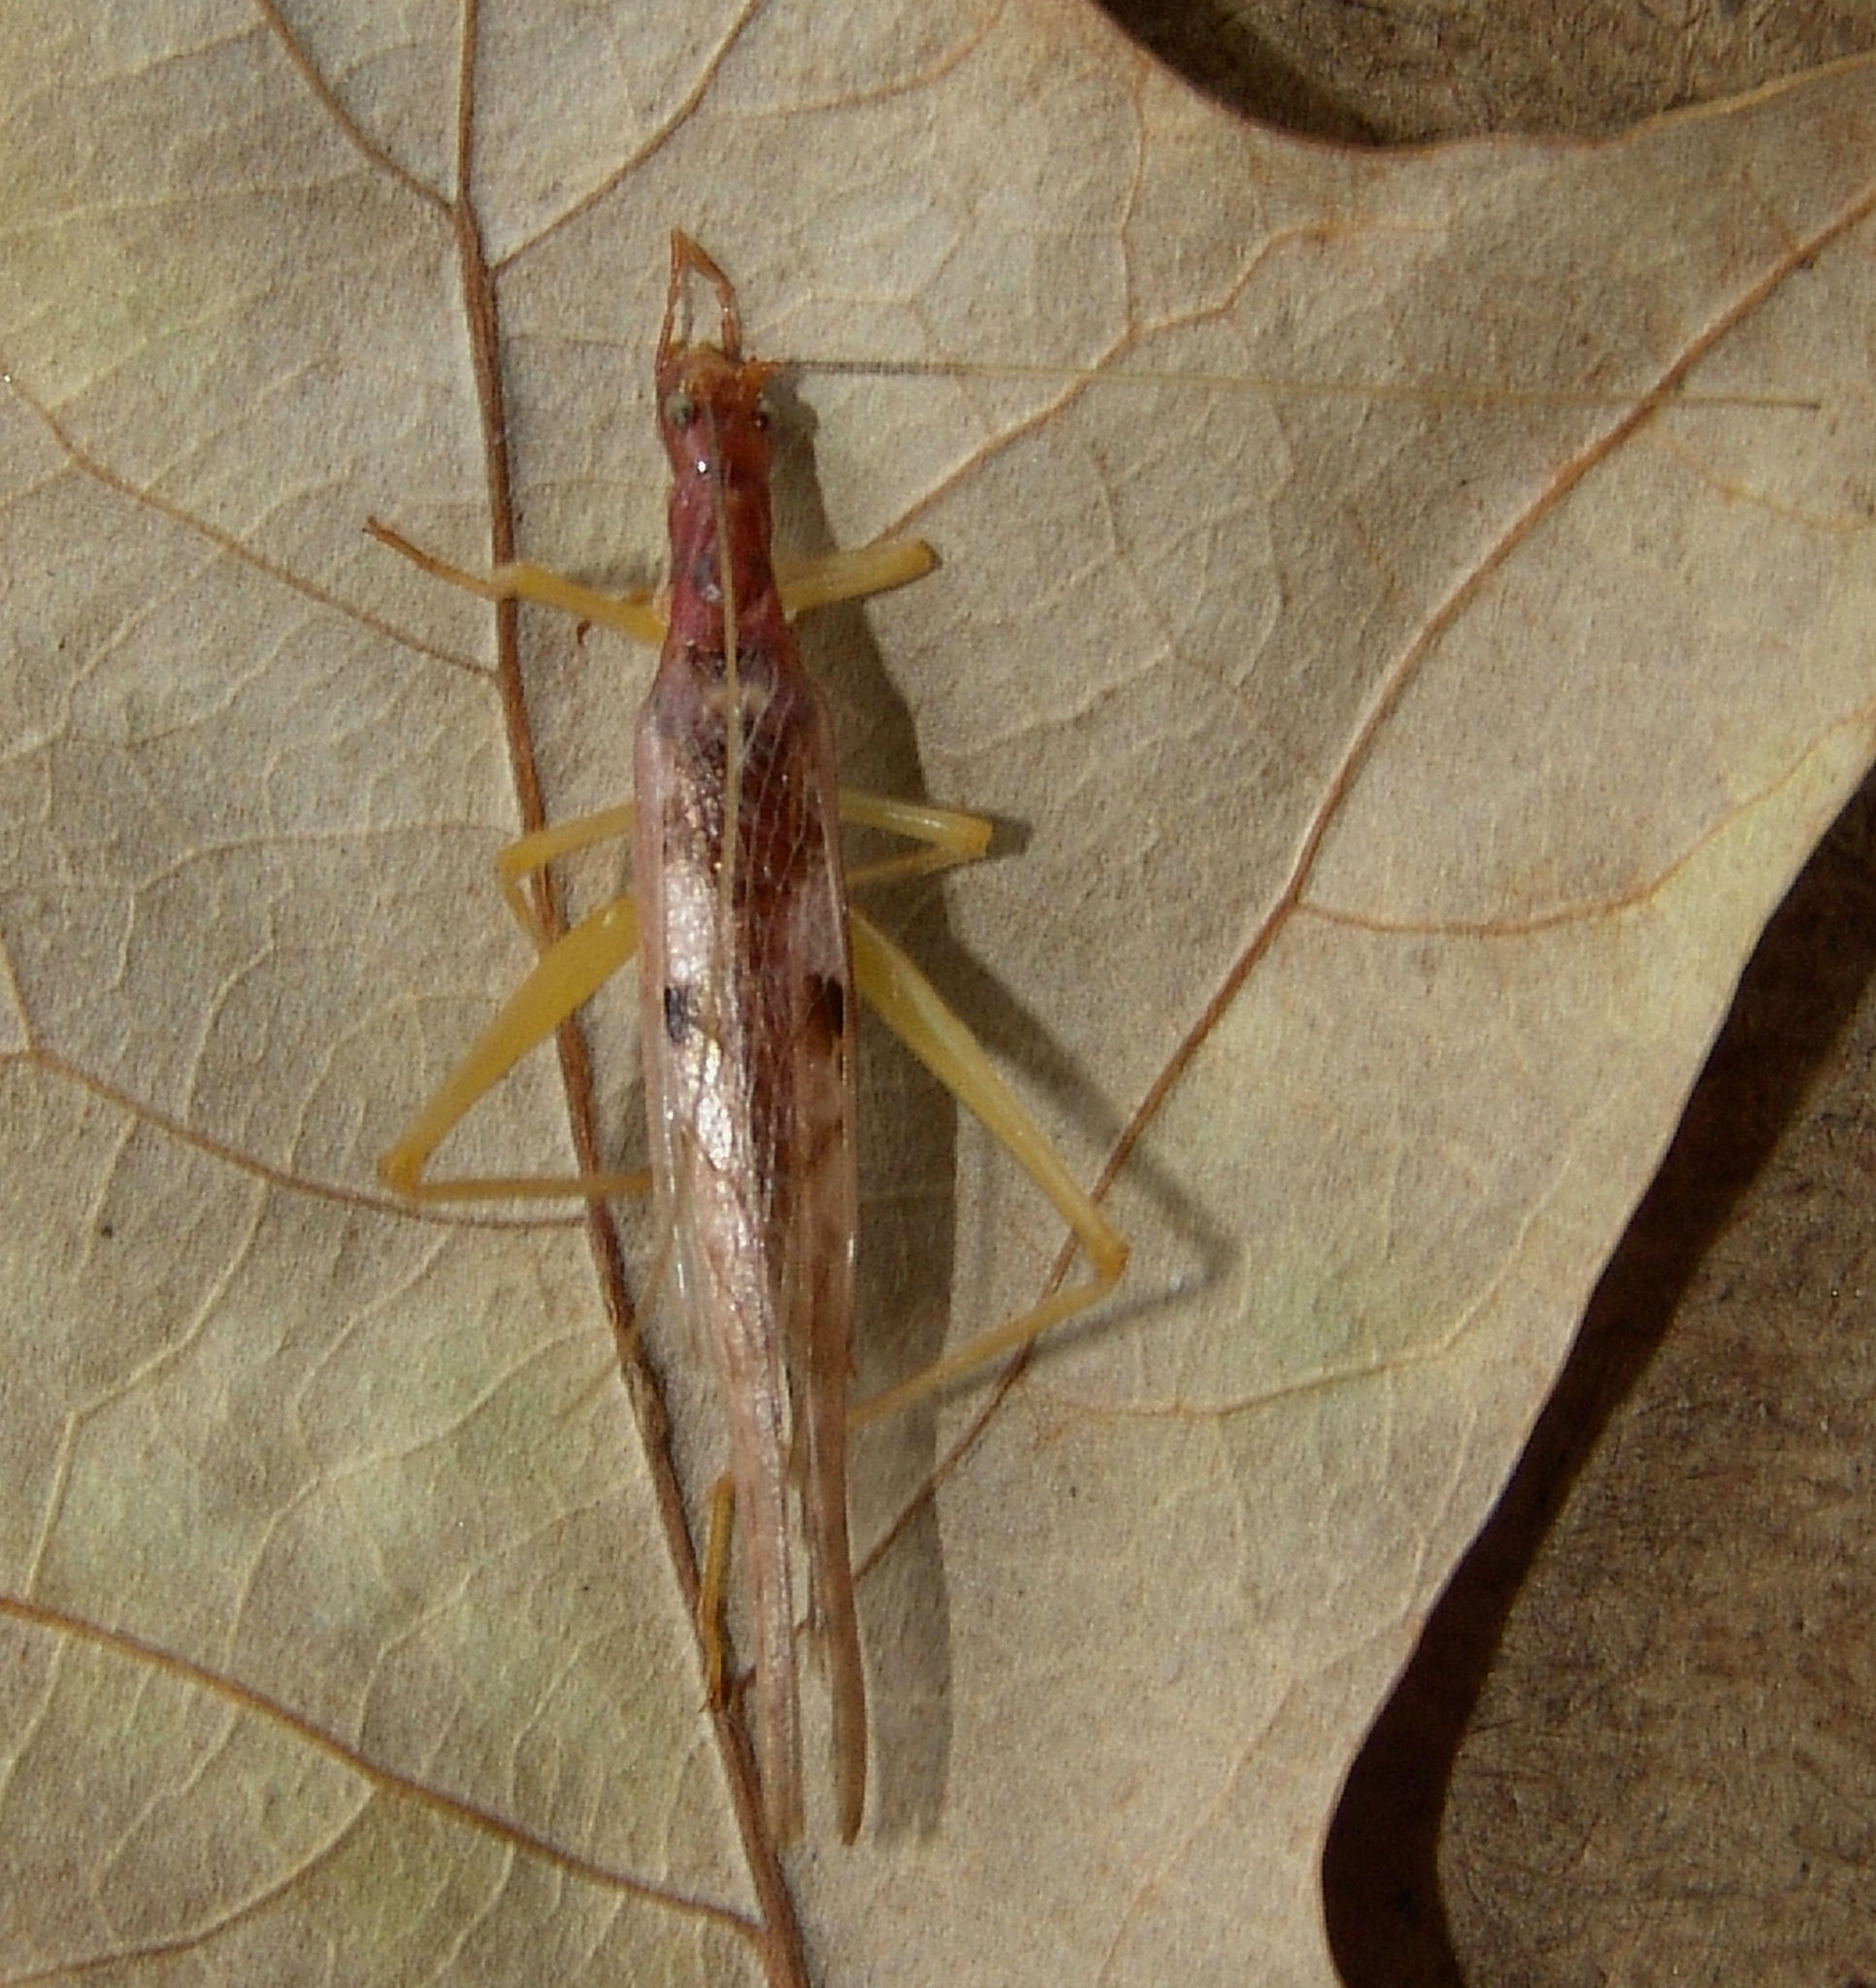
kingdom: Animalia
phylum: Arthropoda
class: Insecta
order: Orthoptera
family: Gryllidae
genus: Neoxabea
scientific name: Neoxabea bipunctata
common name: Two-spotted tree cricket
